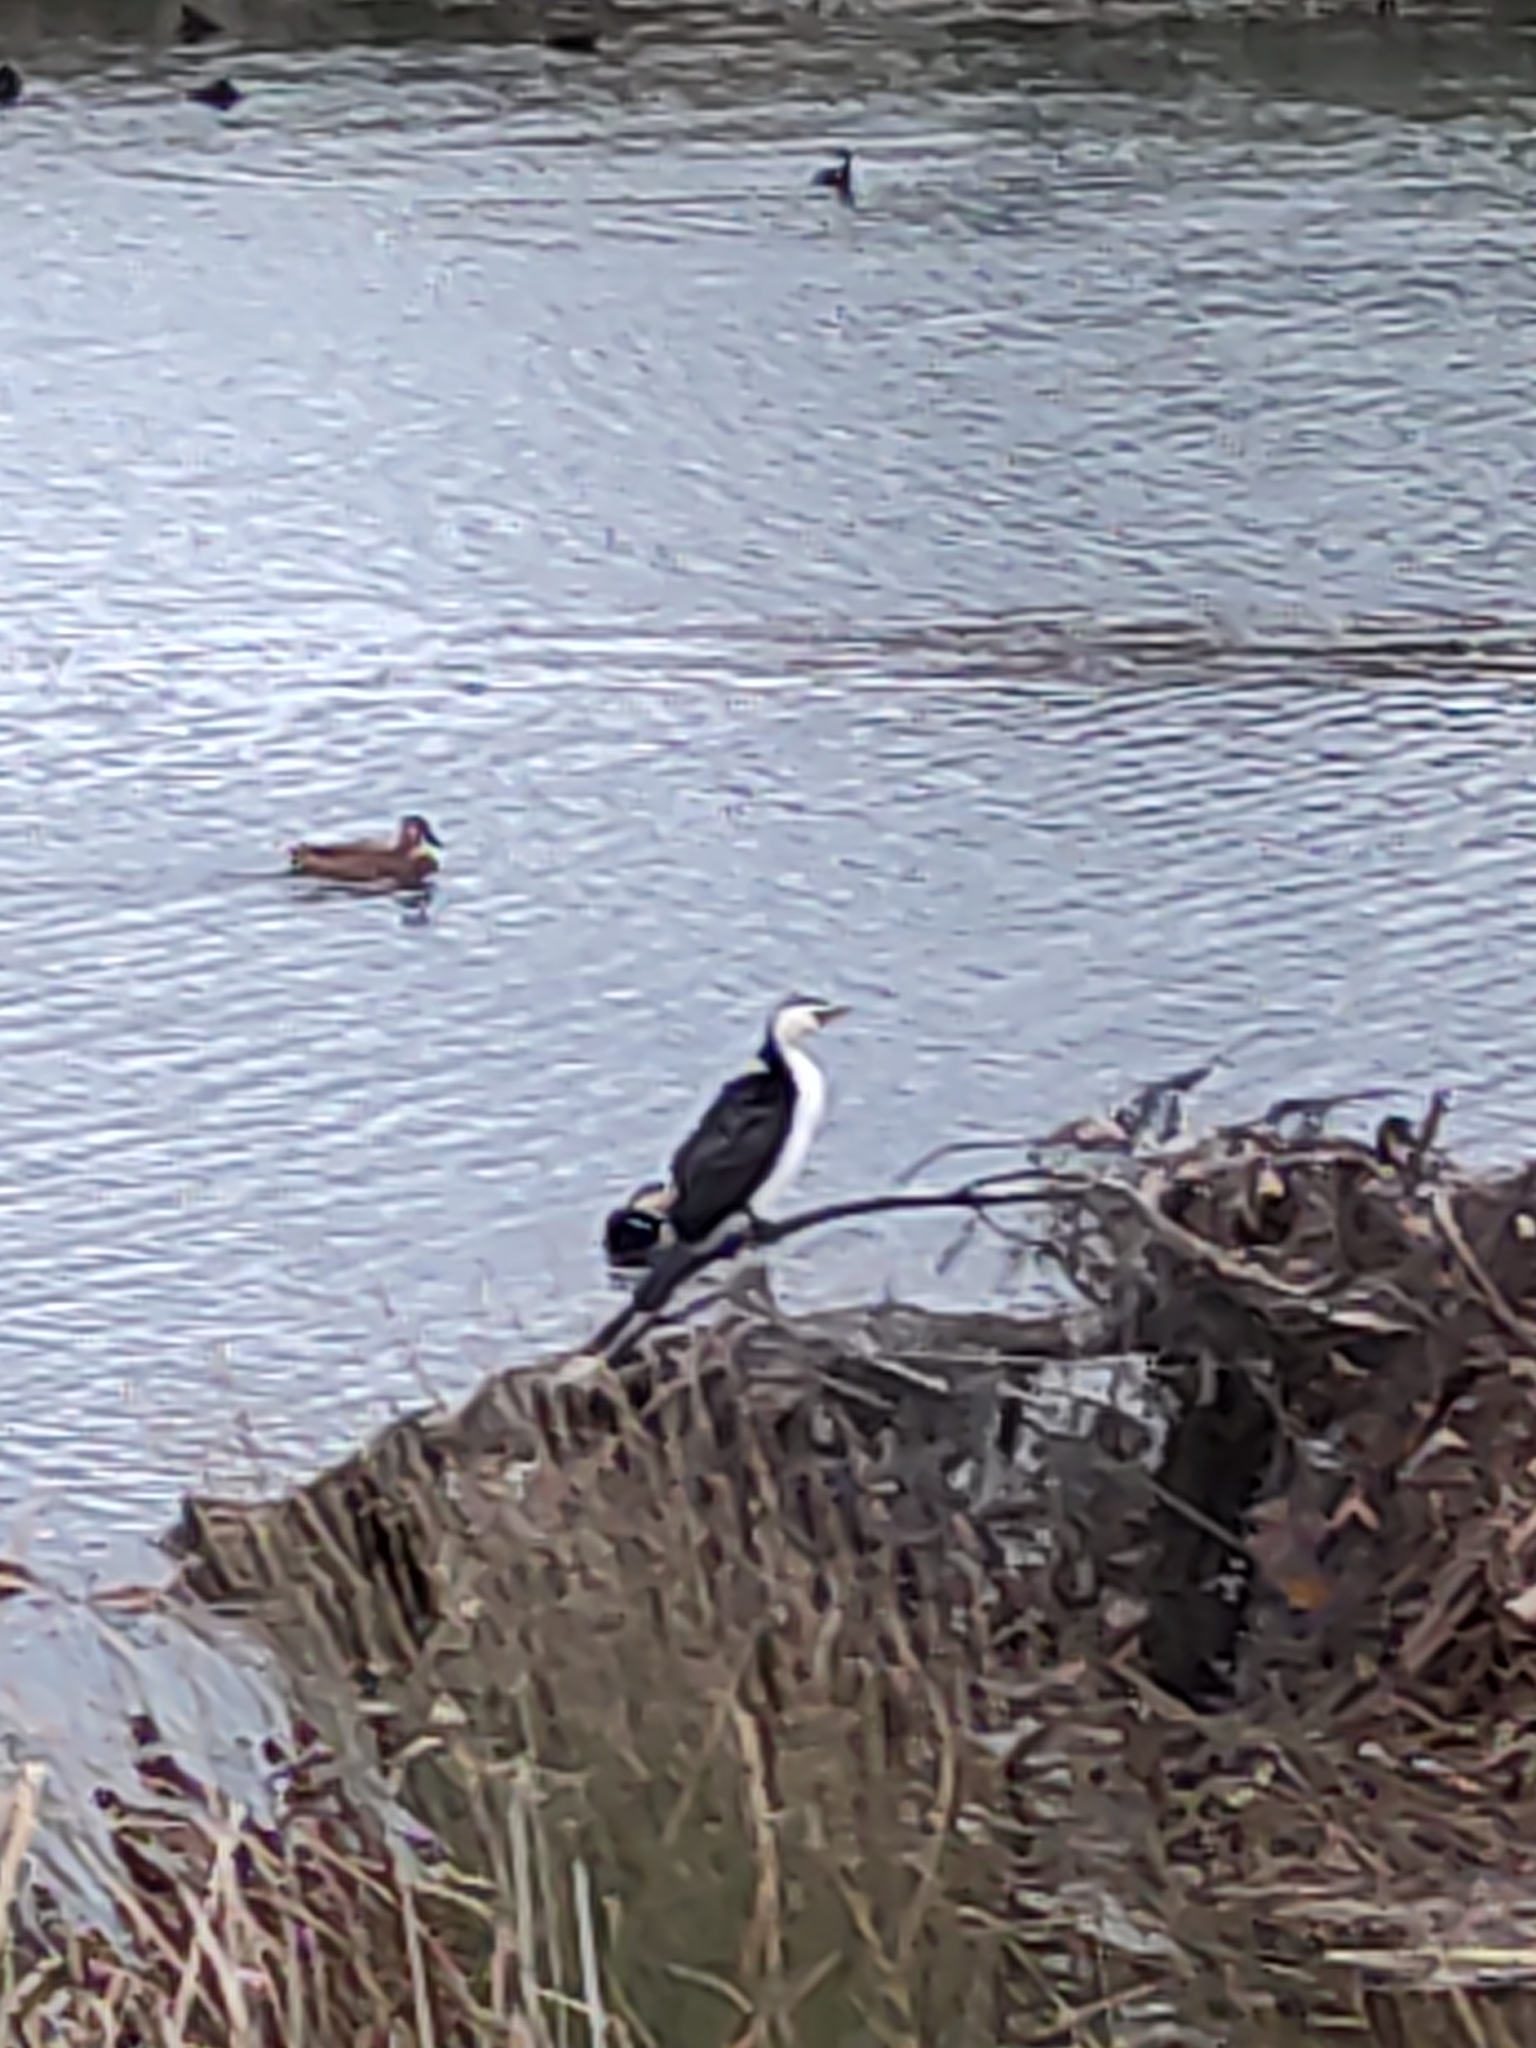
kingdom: Animalia
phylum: Chordata
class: Aves
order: Suliformes
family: Phalacrocoracidae
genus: Microcarbo
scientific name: Microcarbo melanoleucos
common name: Little pied cormorant
